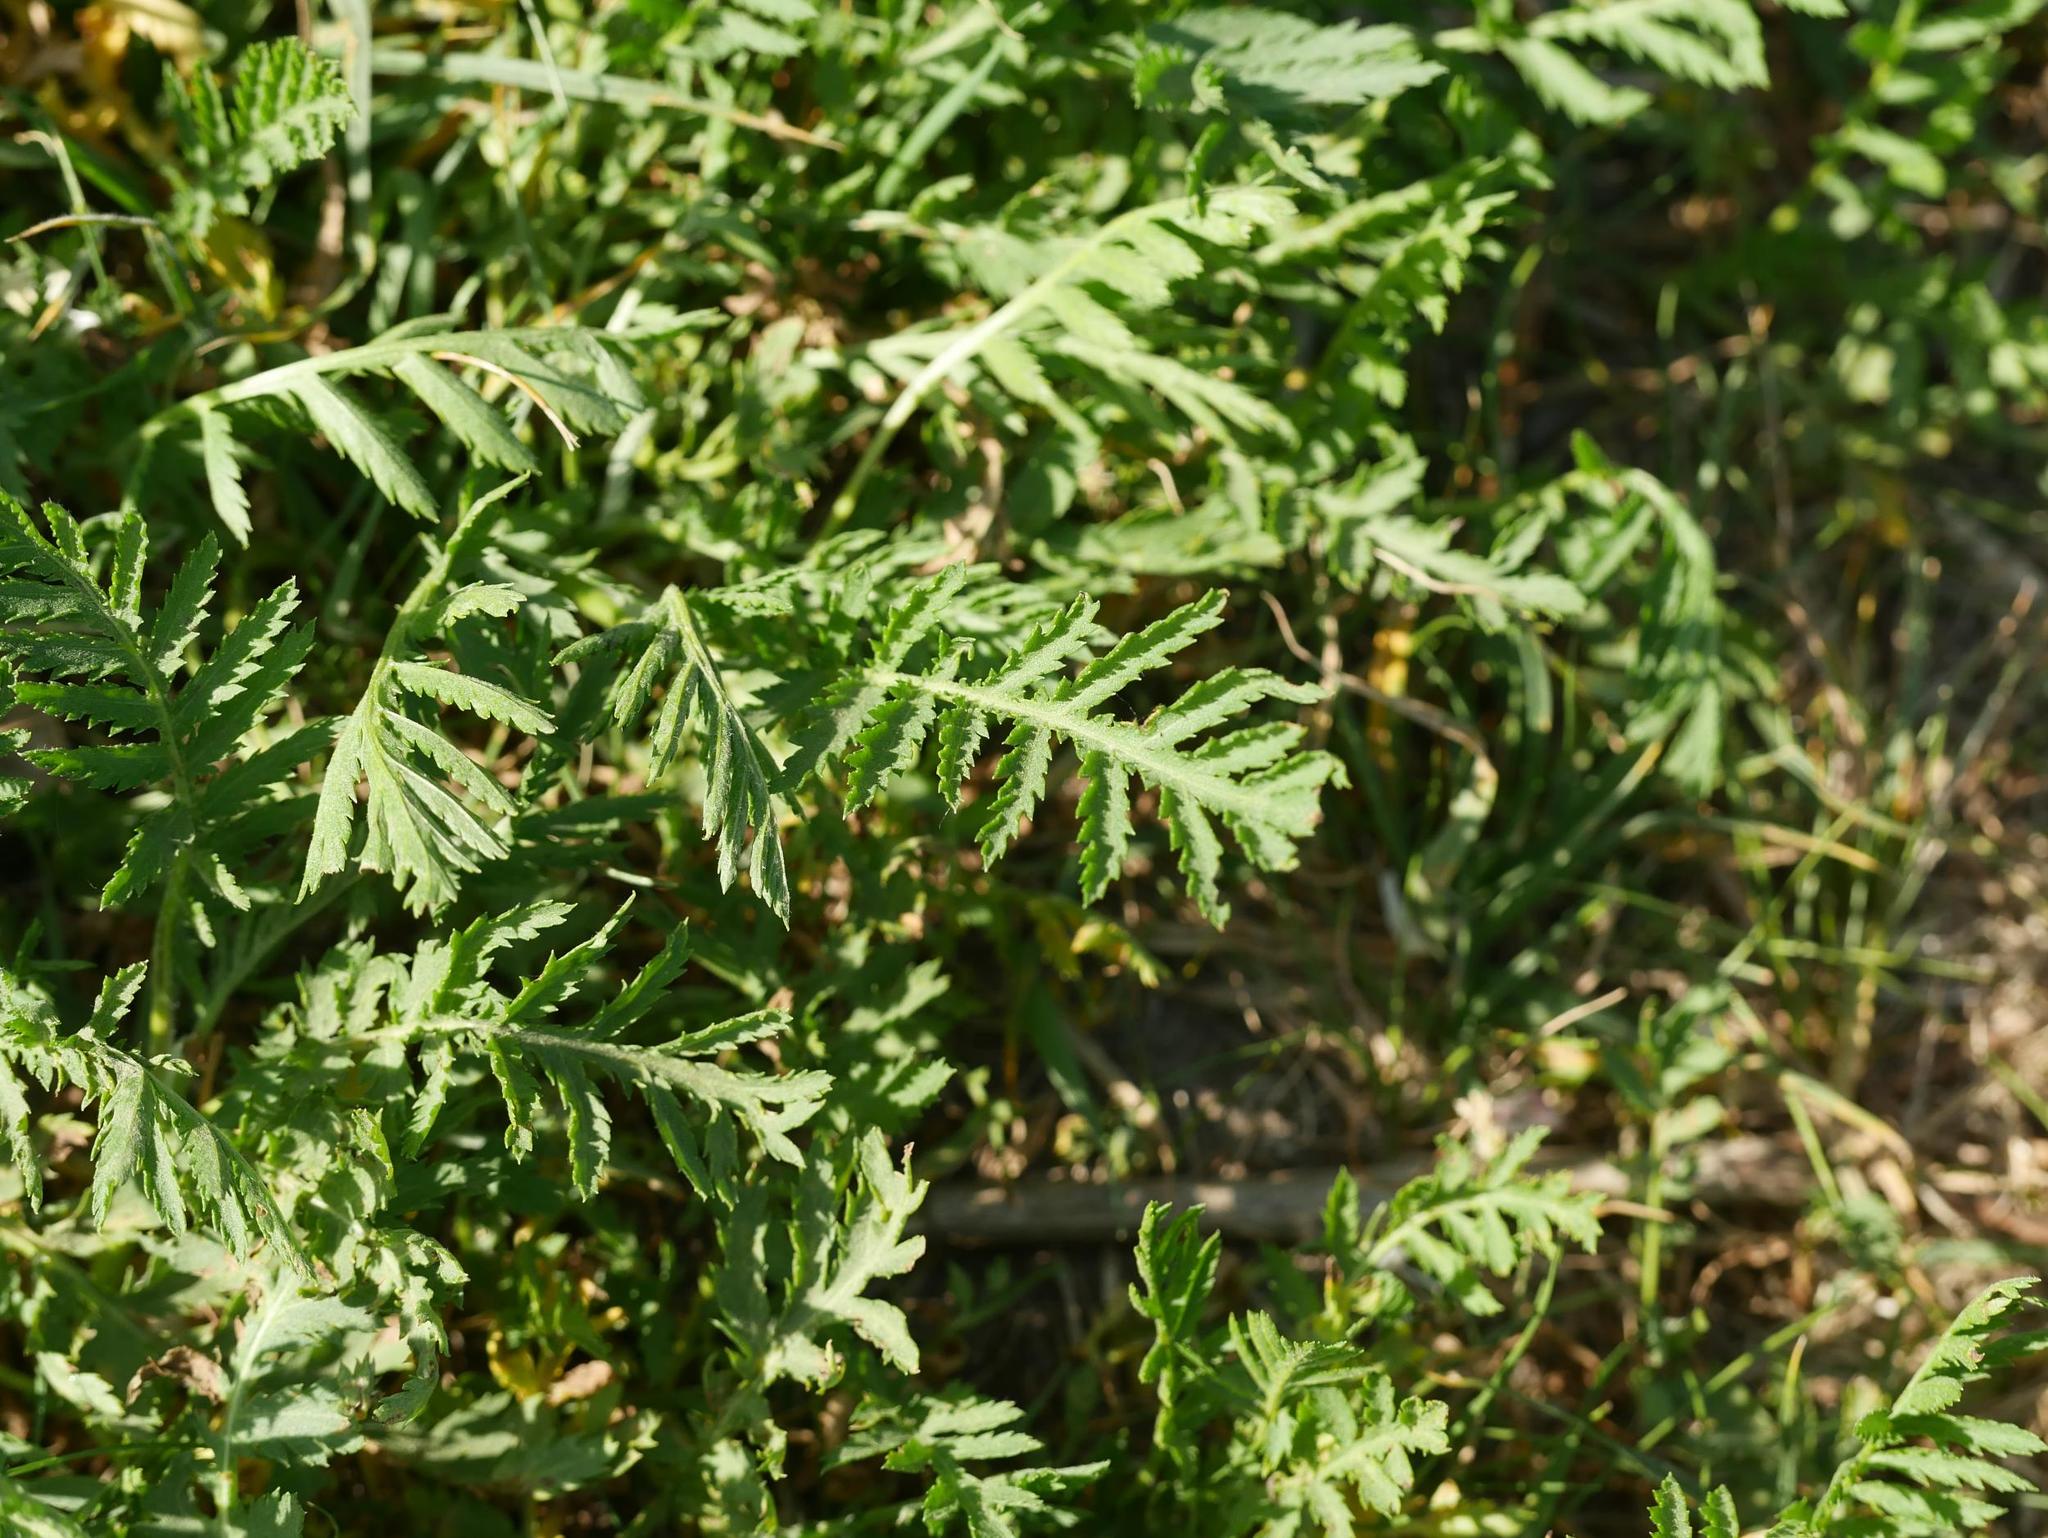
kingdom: Plantae
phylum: Tracheophyta
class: Magnoliopsida
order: Asterales
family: Asteraceae
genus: Tanacetum
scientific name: Tanacetum vulgare
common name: Common tansy
